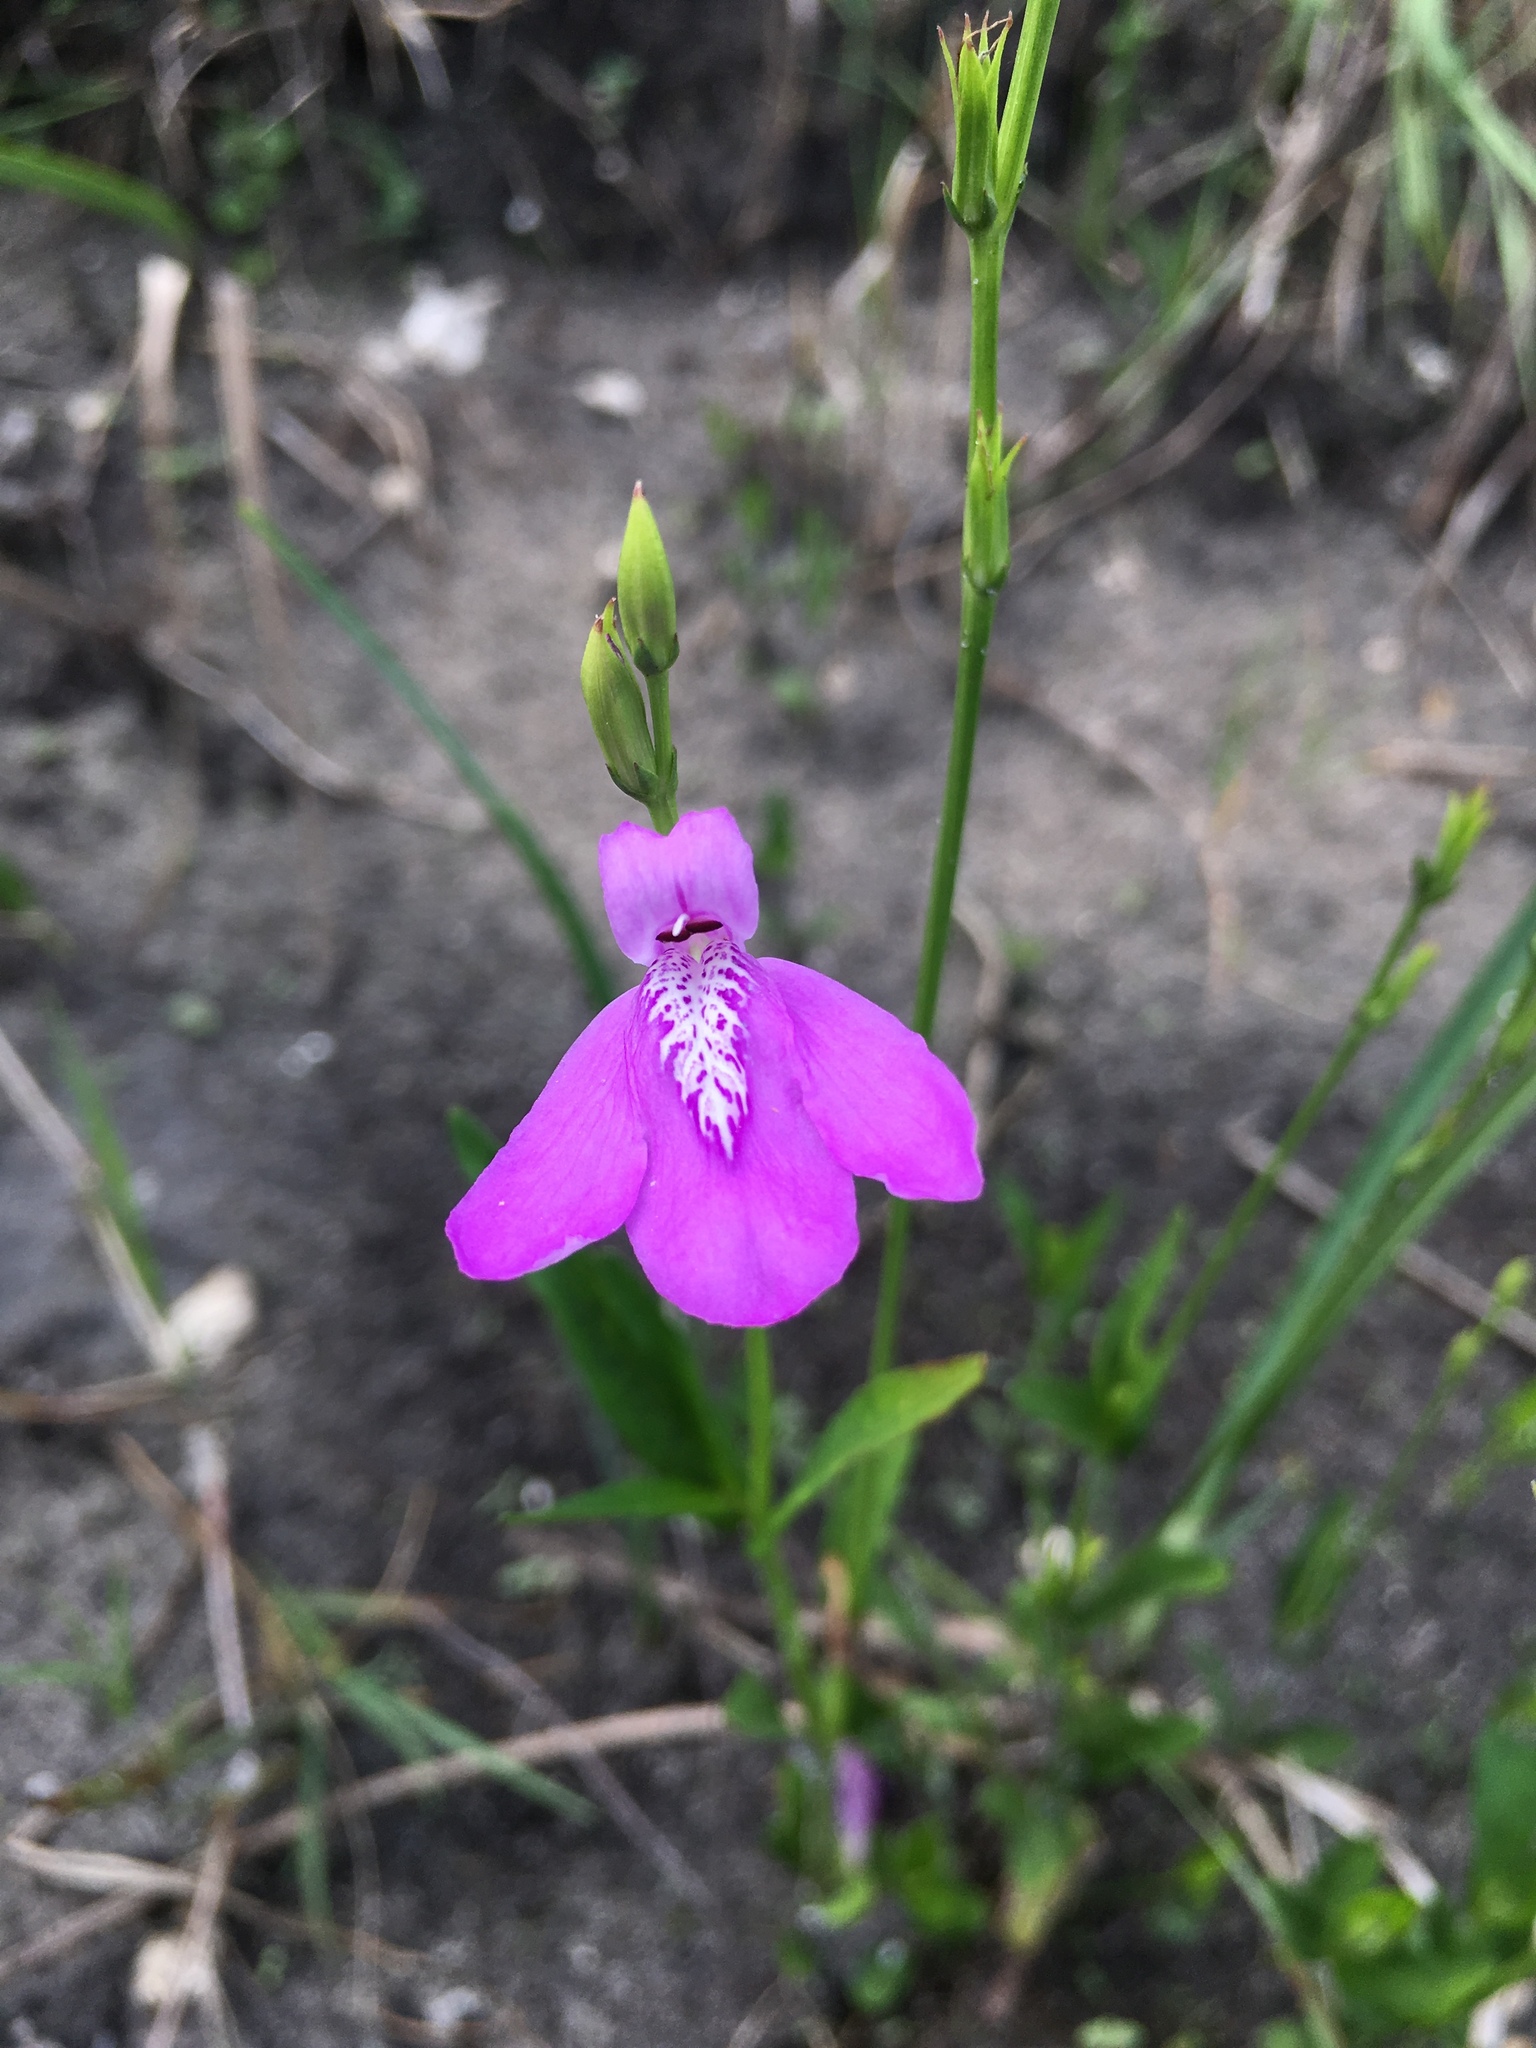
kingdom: Plantae
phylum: Tracheophyta
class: Magnoliopsida
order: Lamiales
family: Acanthaceae
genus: Dianthera
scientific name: Dianthera angusta
